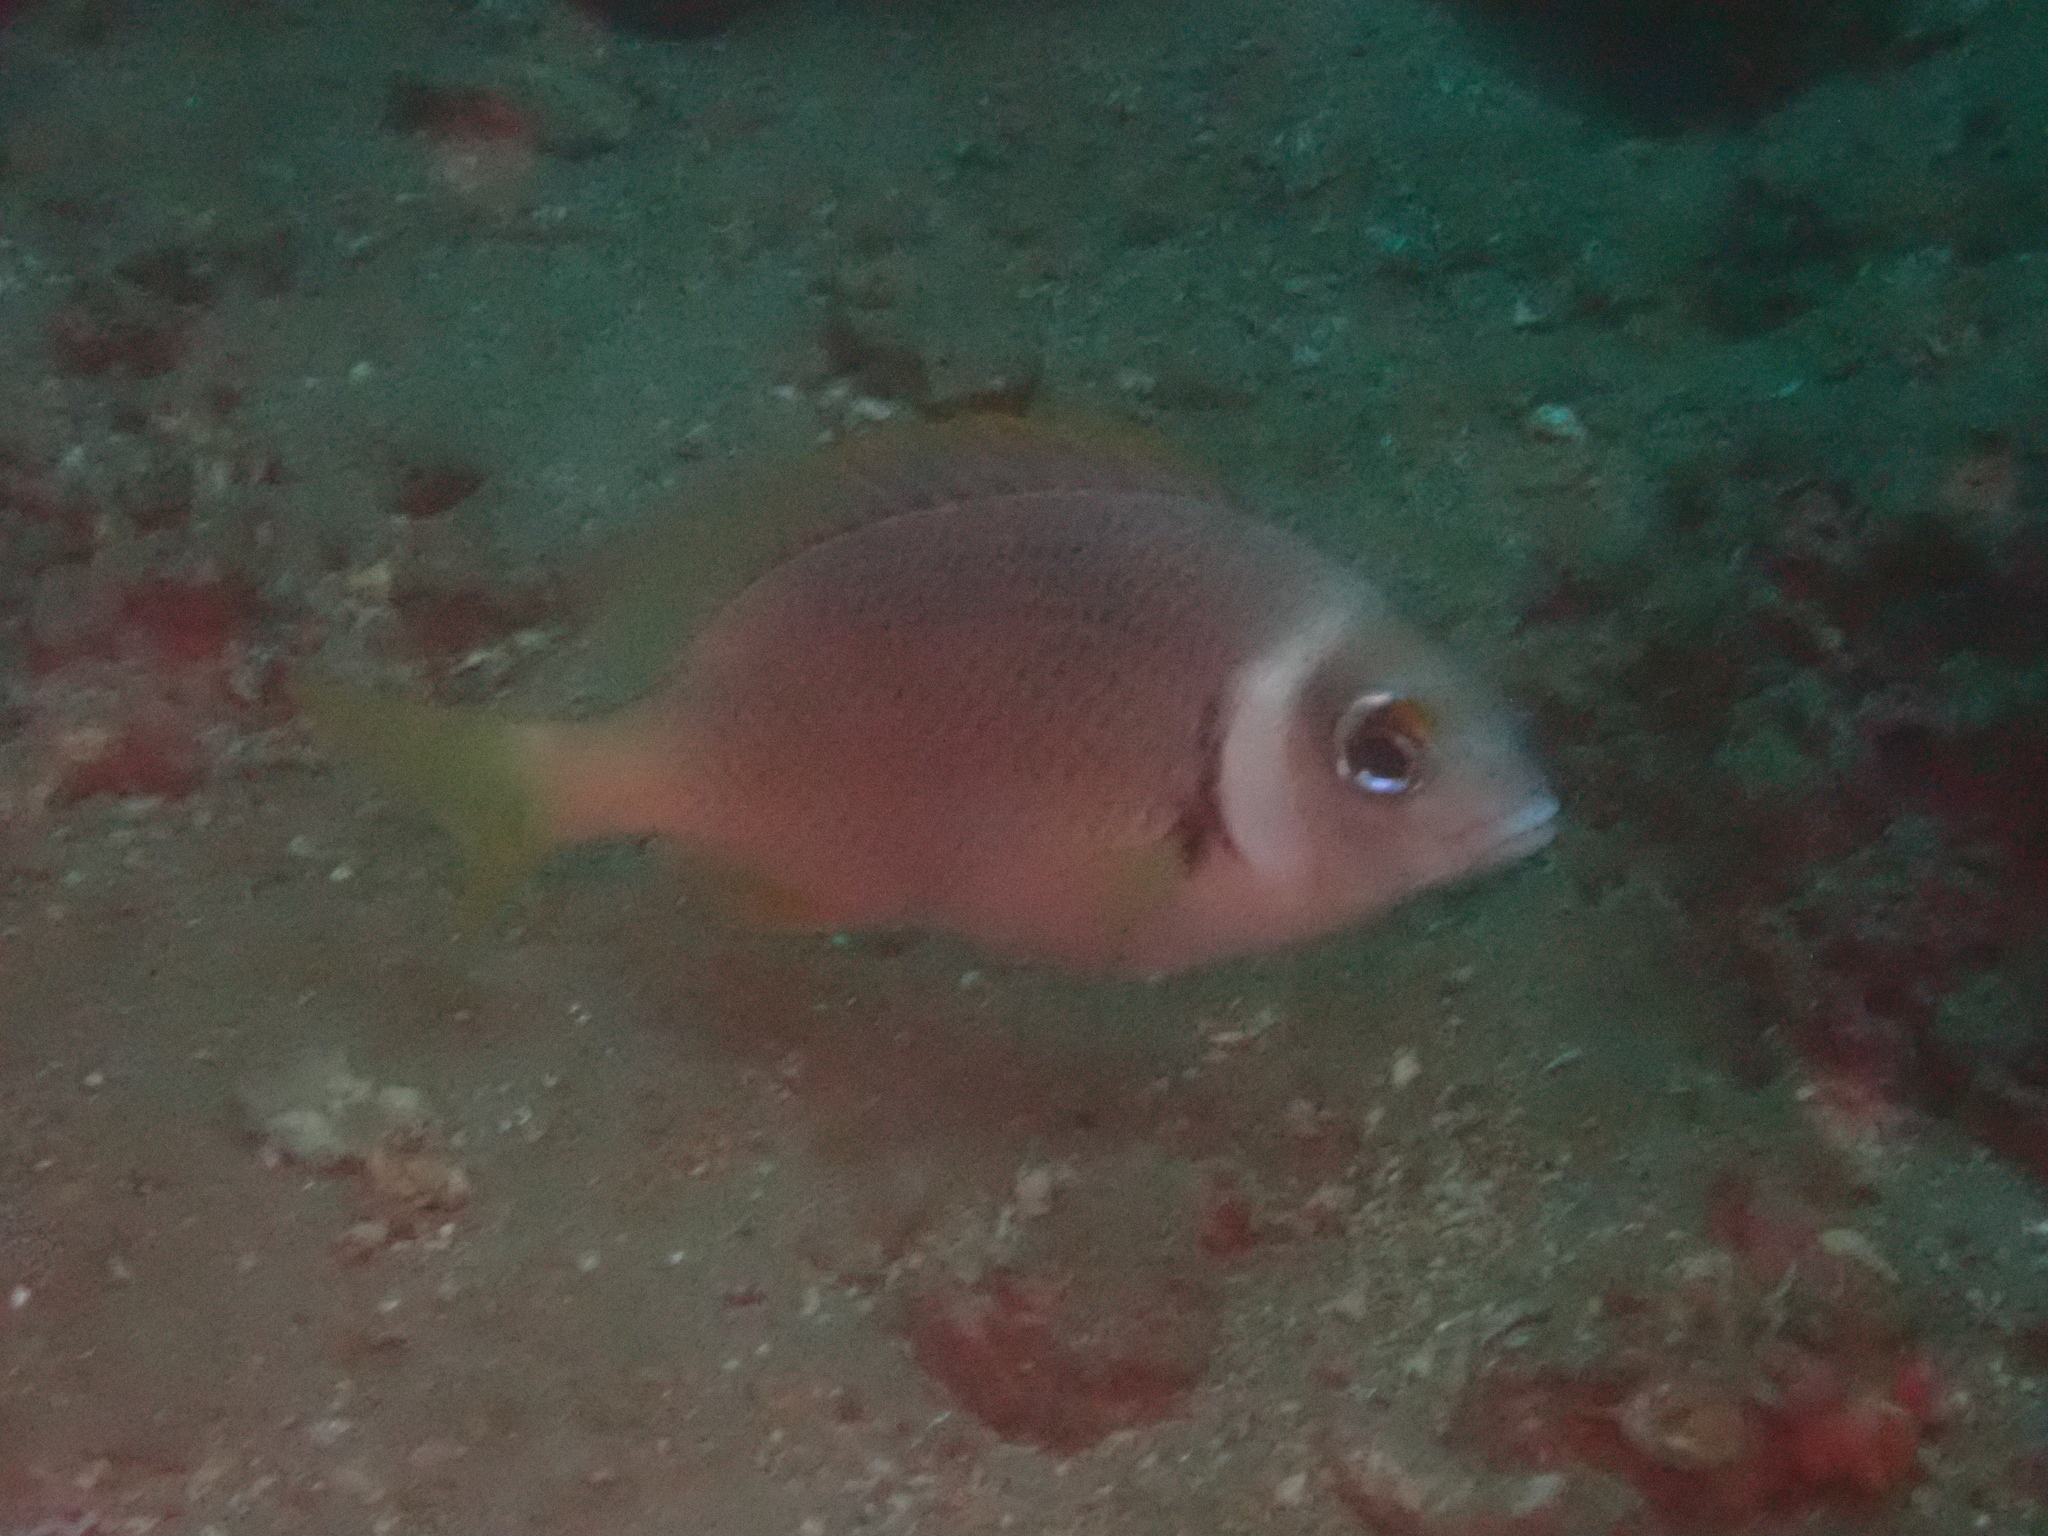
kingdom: Animalia
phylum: Chordata
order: Perciformes
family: Nemipteridae
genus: Scolopsis
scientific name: Scolopsis vosmeri
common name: Whitecheek monocle bream
